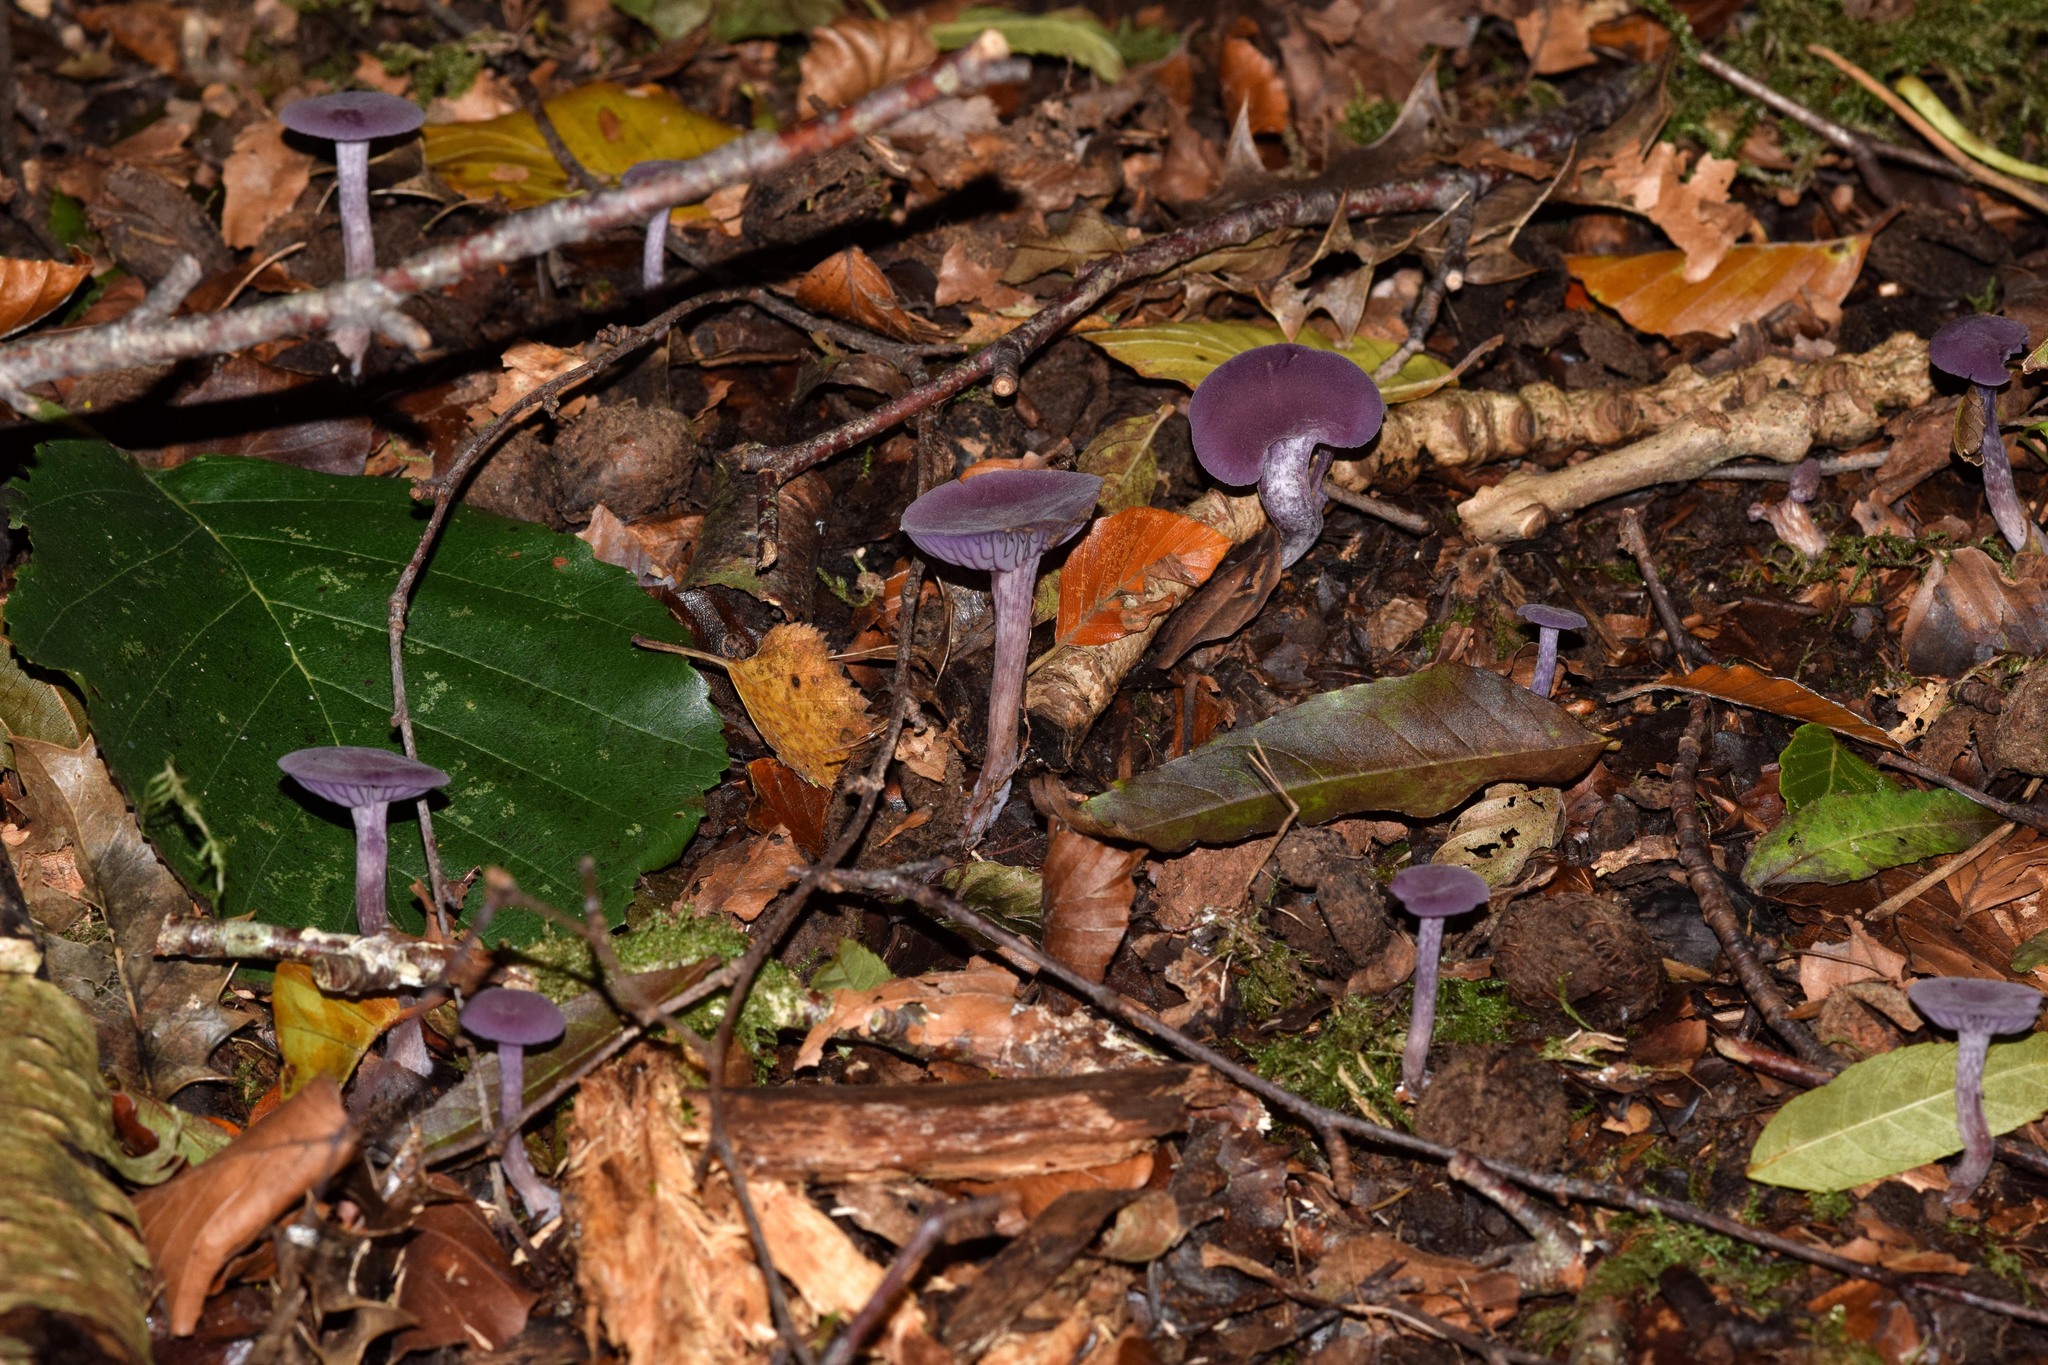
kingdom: Fungi
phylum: Basidiomycota
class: Agaricomycetes
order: Agaricales
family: Hydnangiaceae
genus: Laccaria
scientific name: Laccaria amethystina
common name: Amethyst deceiver
